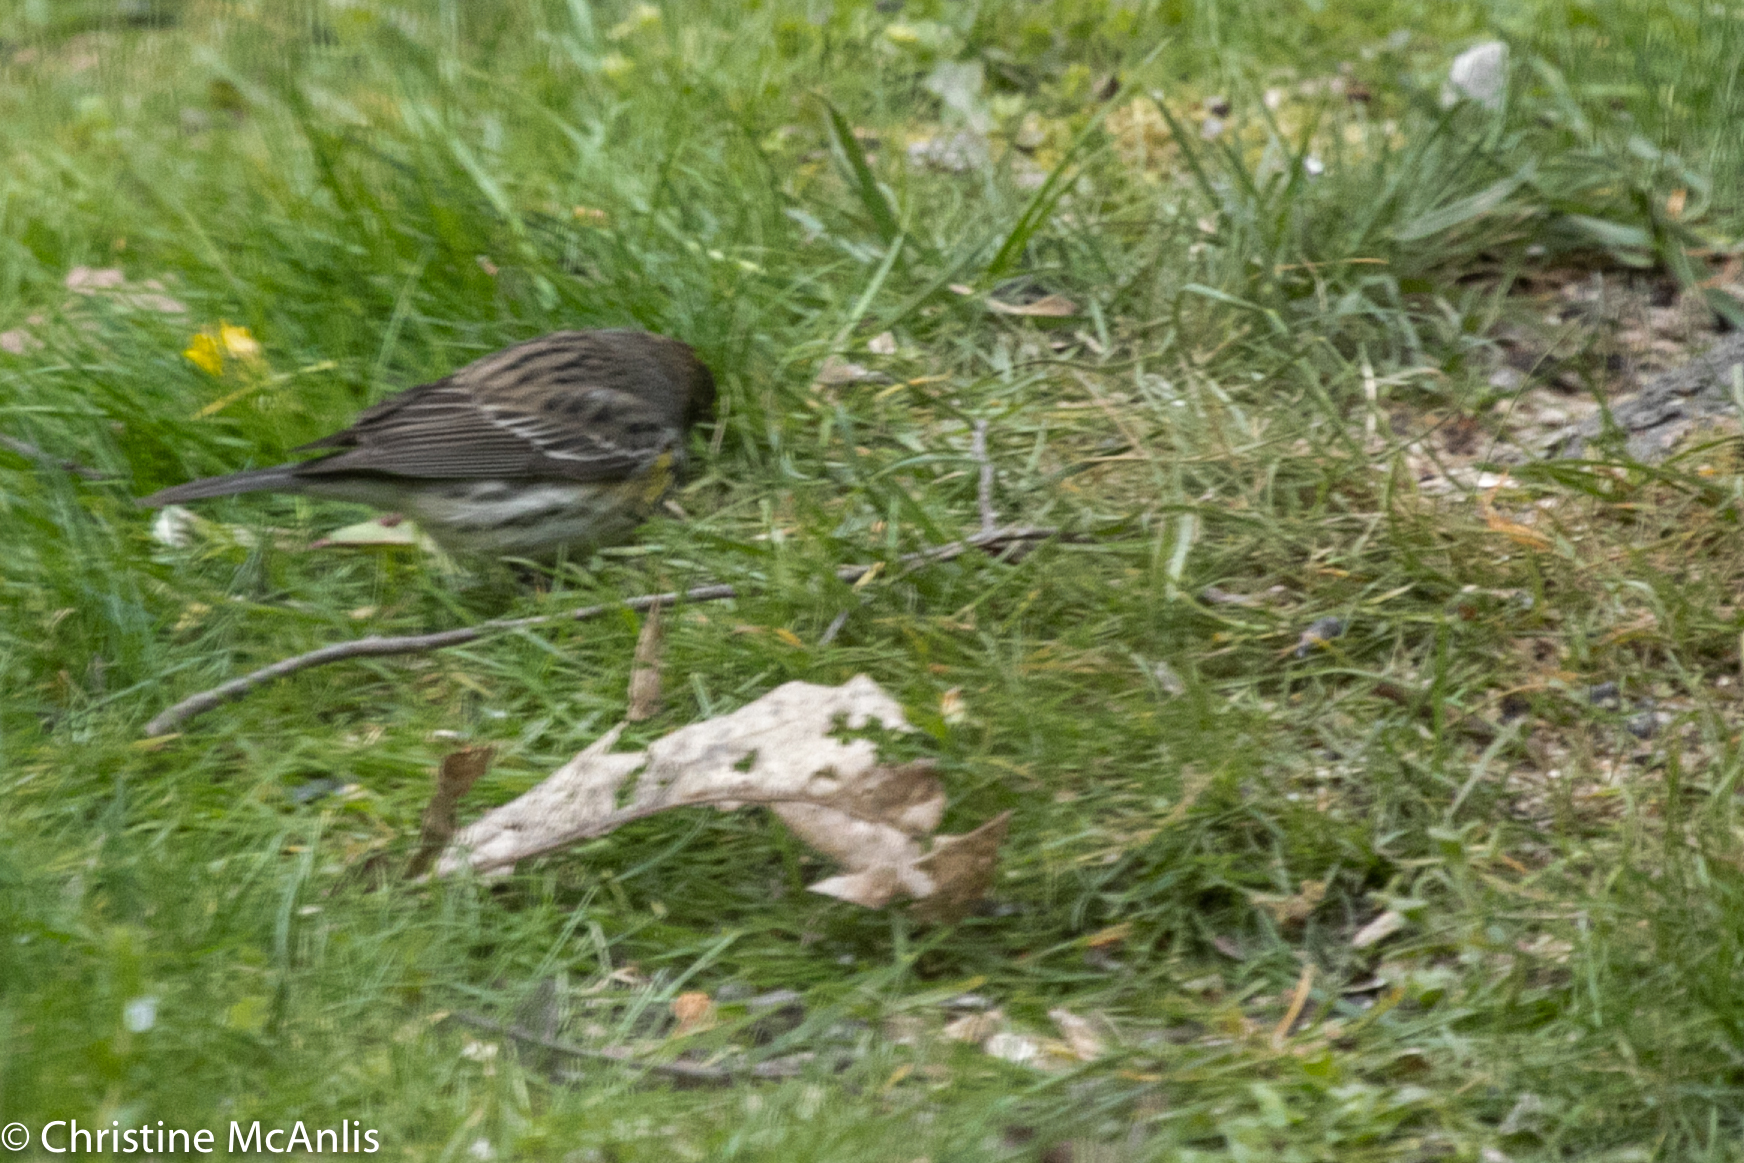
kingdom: Animalia
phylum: Chordata
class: Aves
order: Passeriformes
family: Parulidae
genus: Setophaga
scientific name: Setophaga coronata
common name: Myrtle warbler
